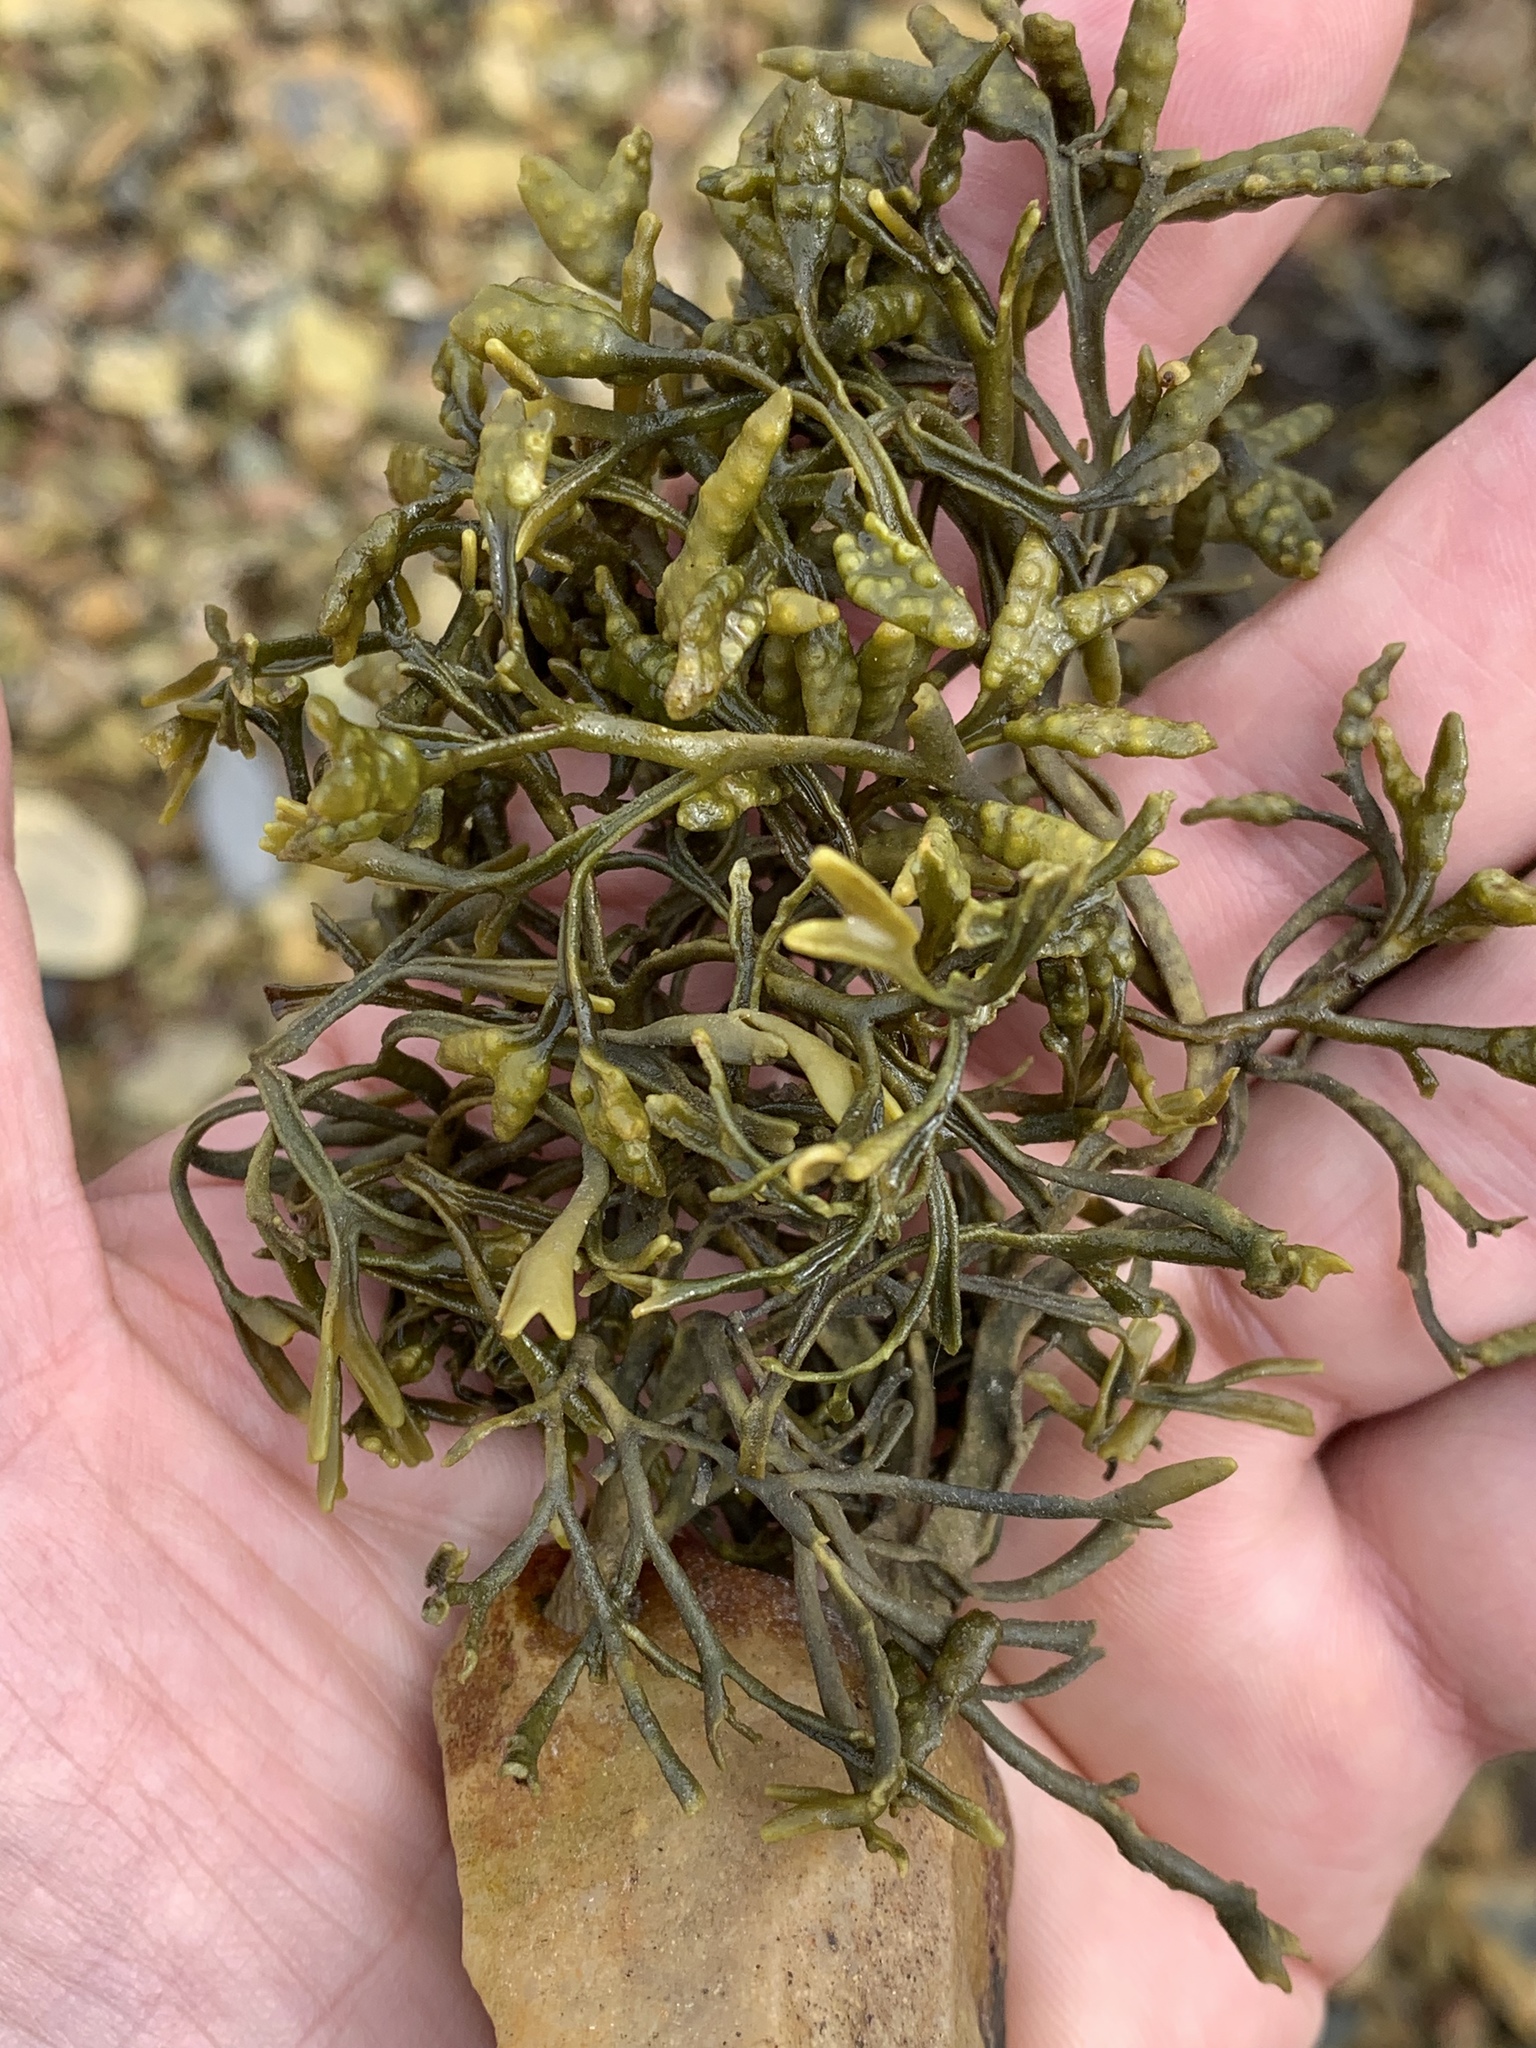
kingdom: Chromista
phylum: Ochrophyta
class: Phaeophyceae
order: Fucales
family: Fucaceae
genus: Pelvetia
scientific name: Pelvetia canaliculata
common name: Channelled wrack
